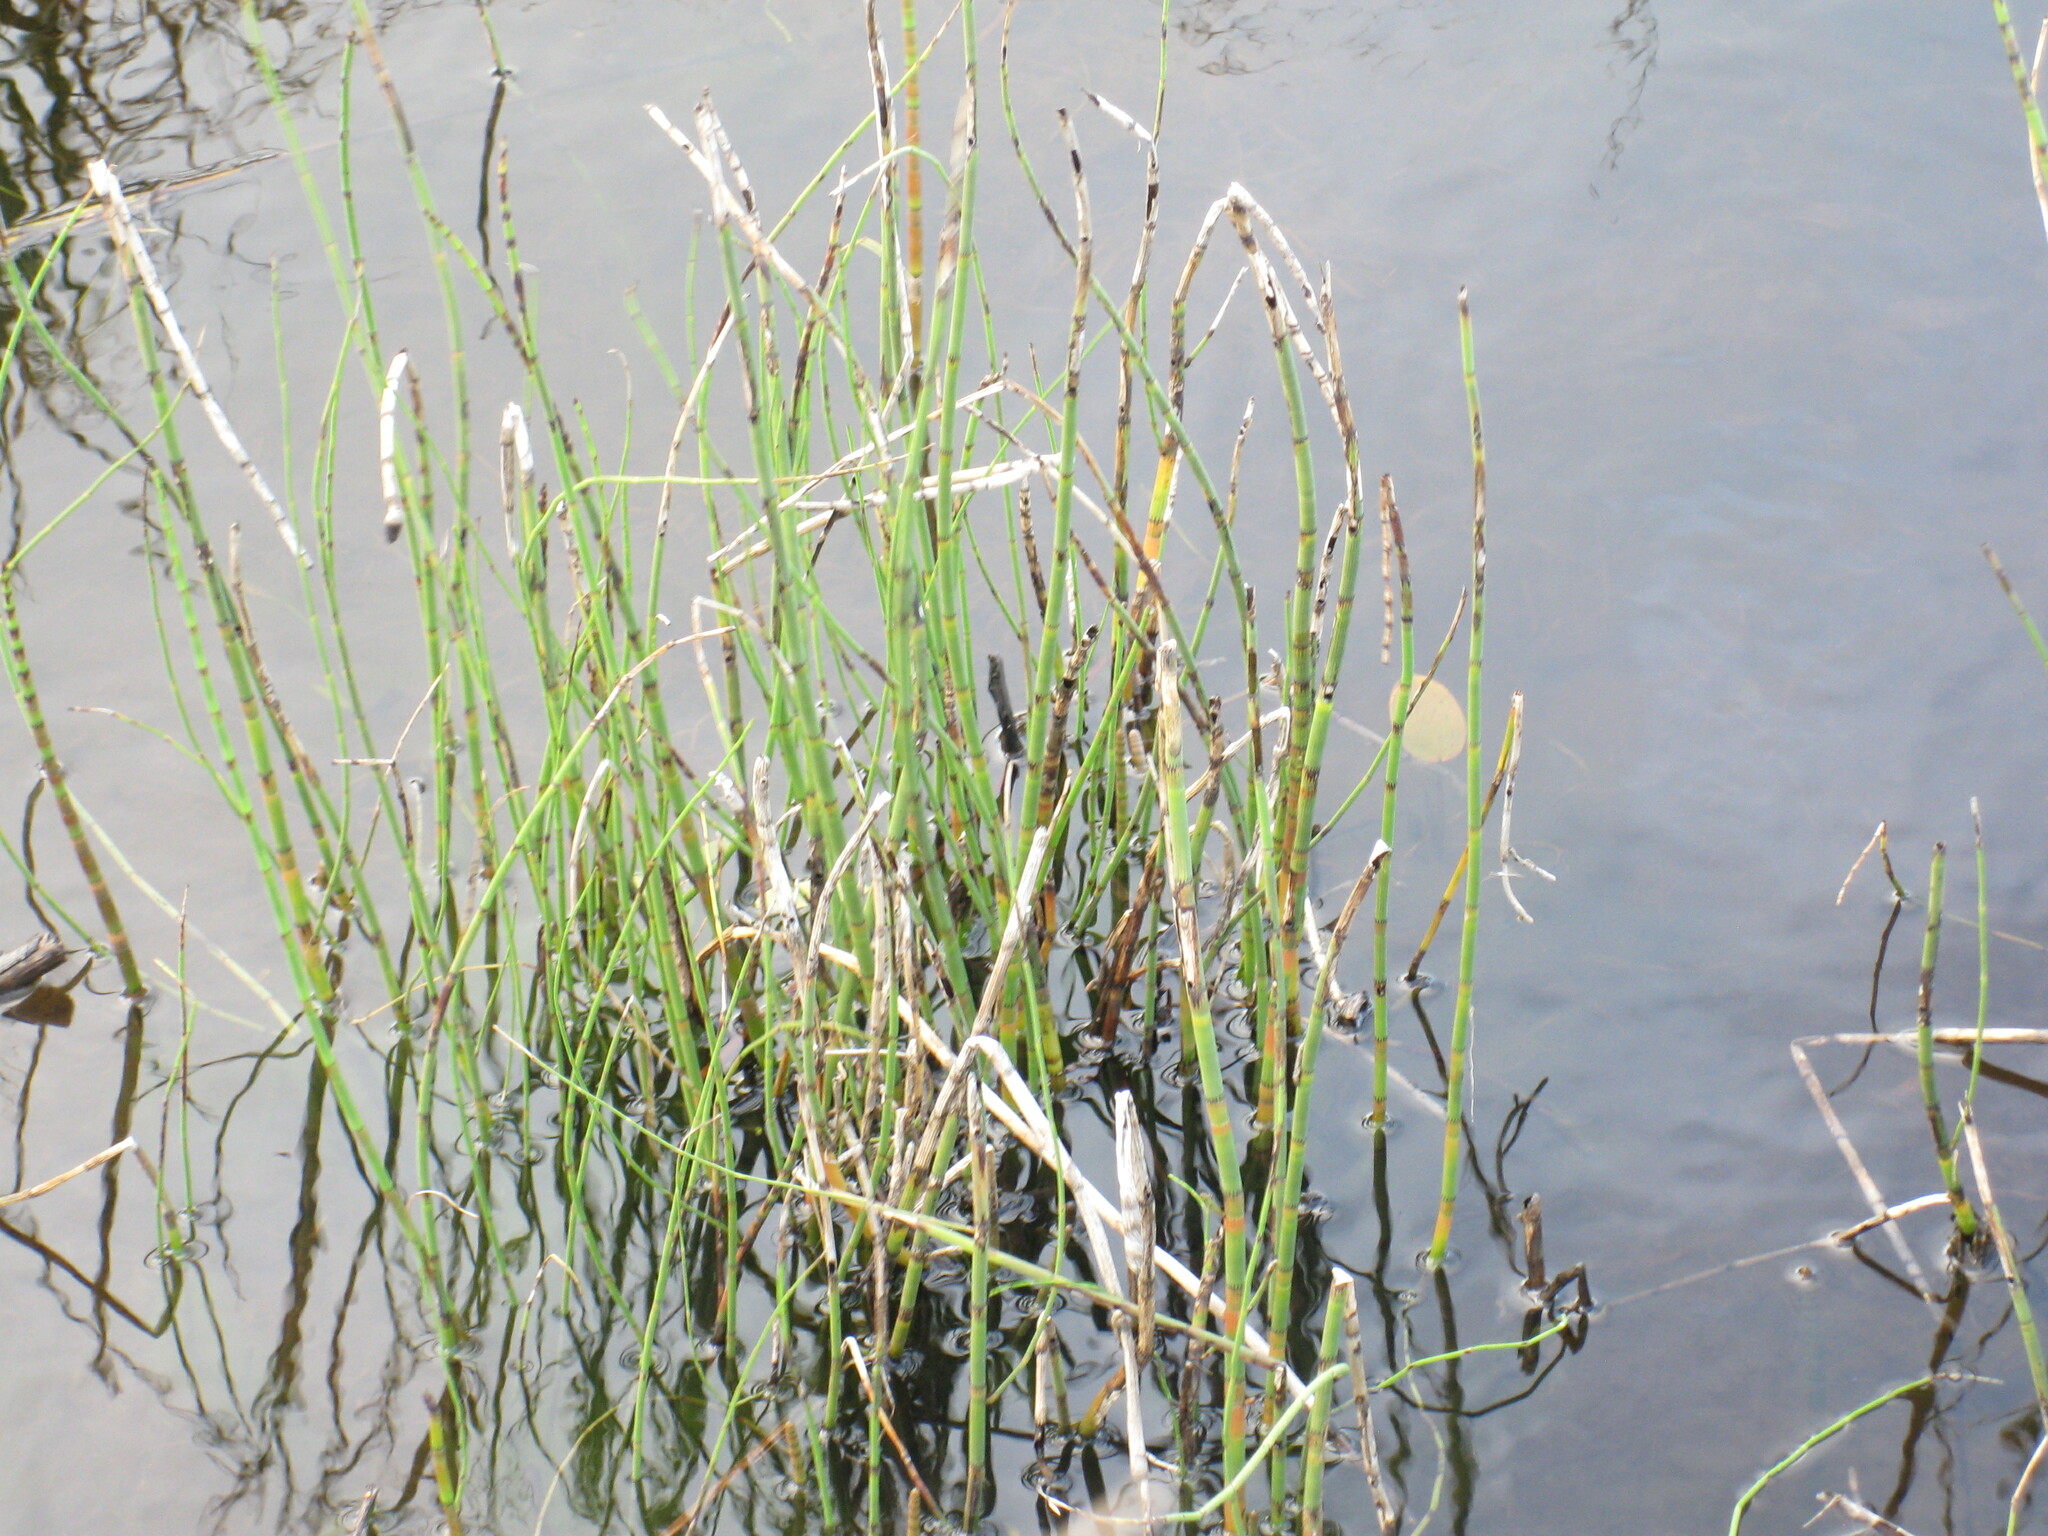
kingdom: Plantae
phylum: Tracheophyta
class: Polypodiopsida
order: Equisetales
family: Equisetaceae
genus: Equisetum
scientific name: Equisetum fluviatile
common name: Water horsetail
